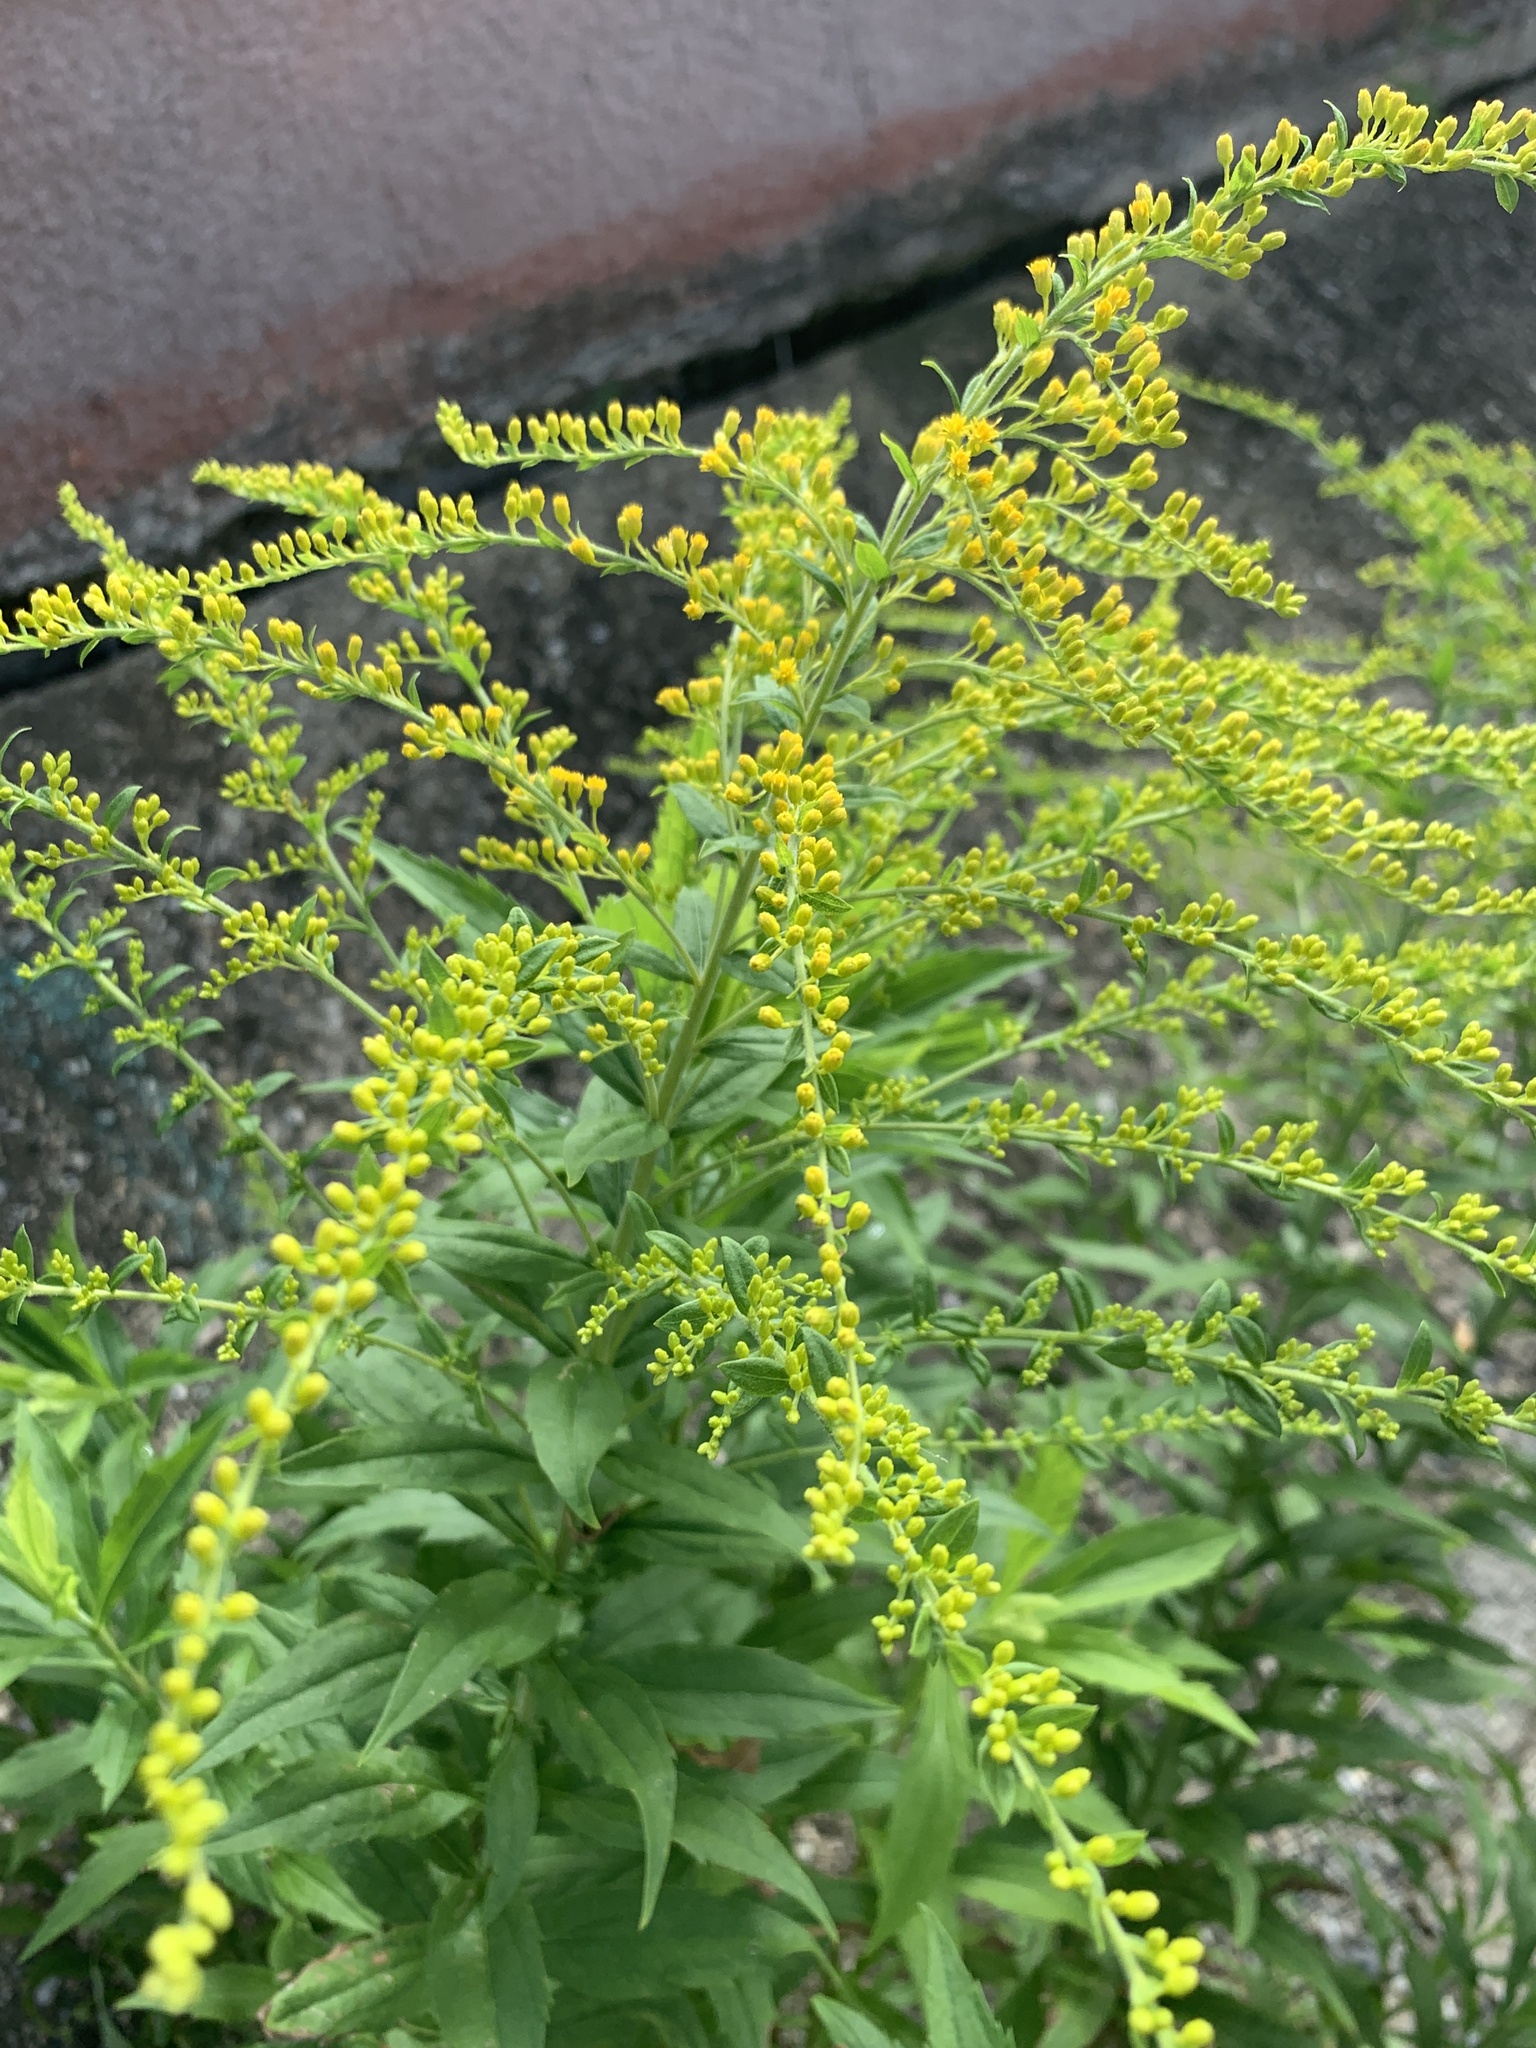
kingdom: Plantae
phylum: Tracheophyta
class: Magnoliopsida
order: Asterales
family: Asteraceae
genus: Solidago
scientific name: Solidago canadensis
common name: Canada goldenrod
